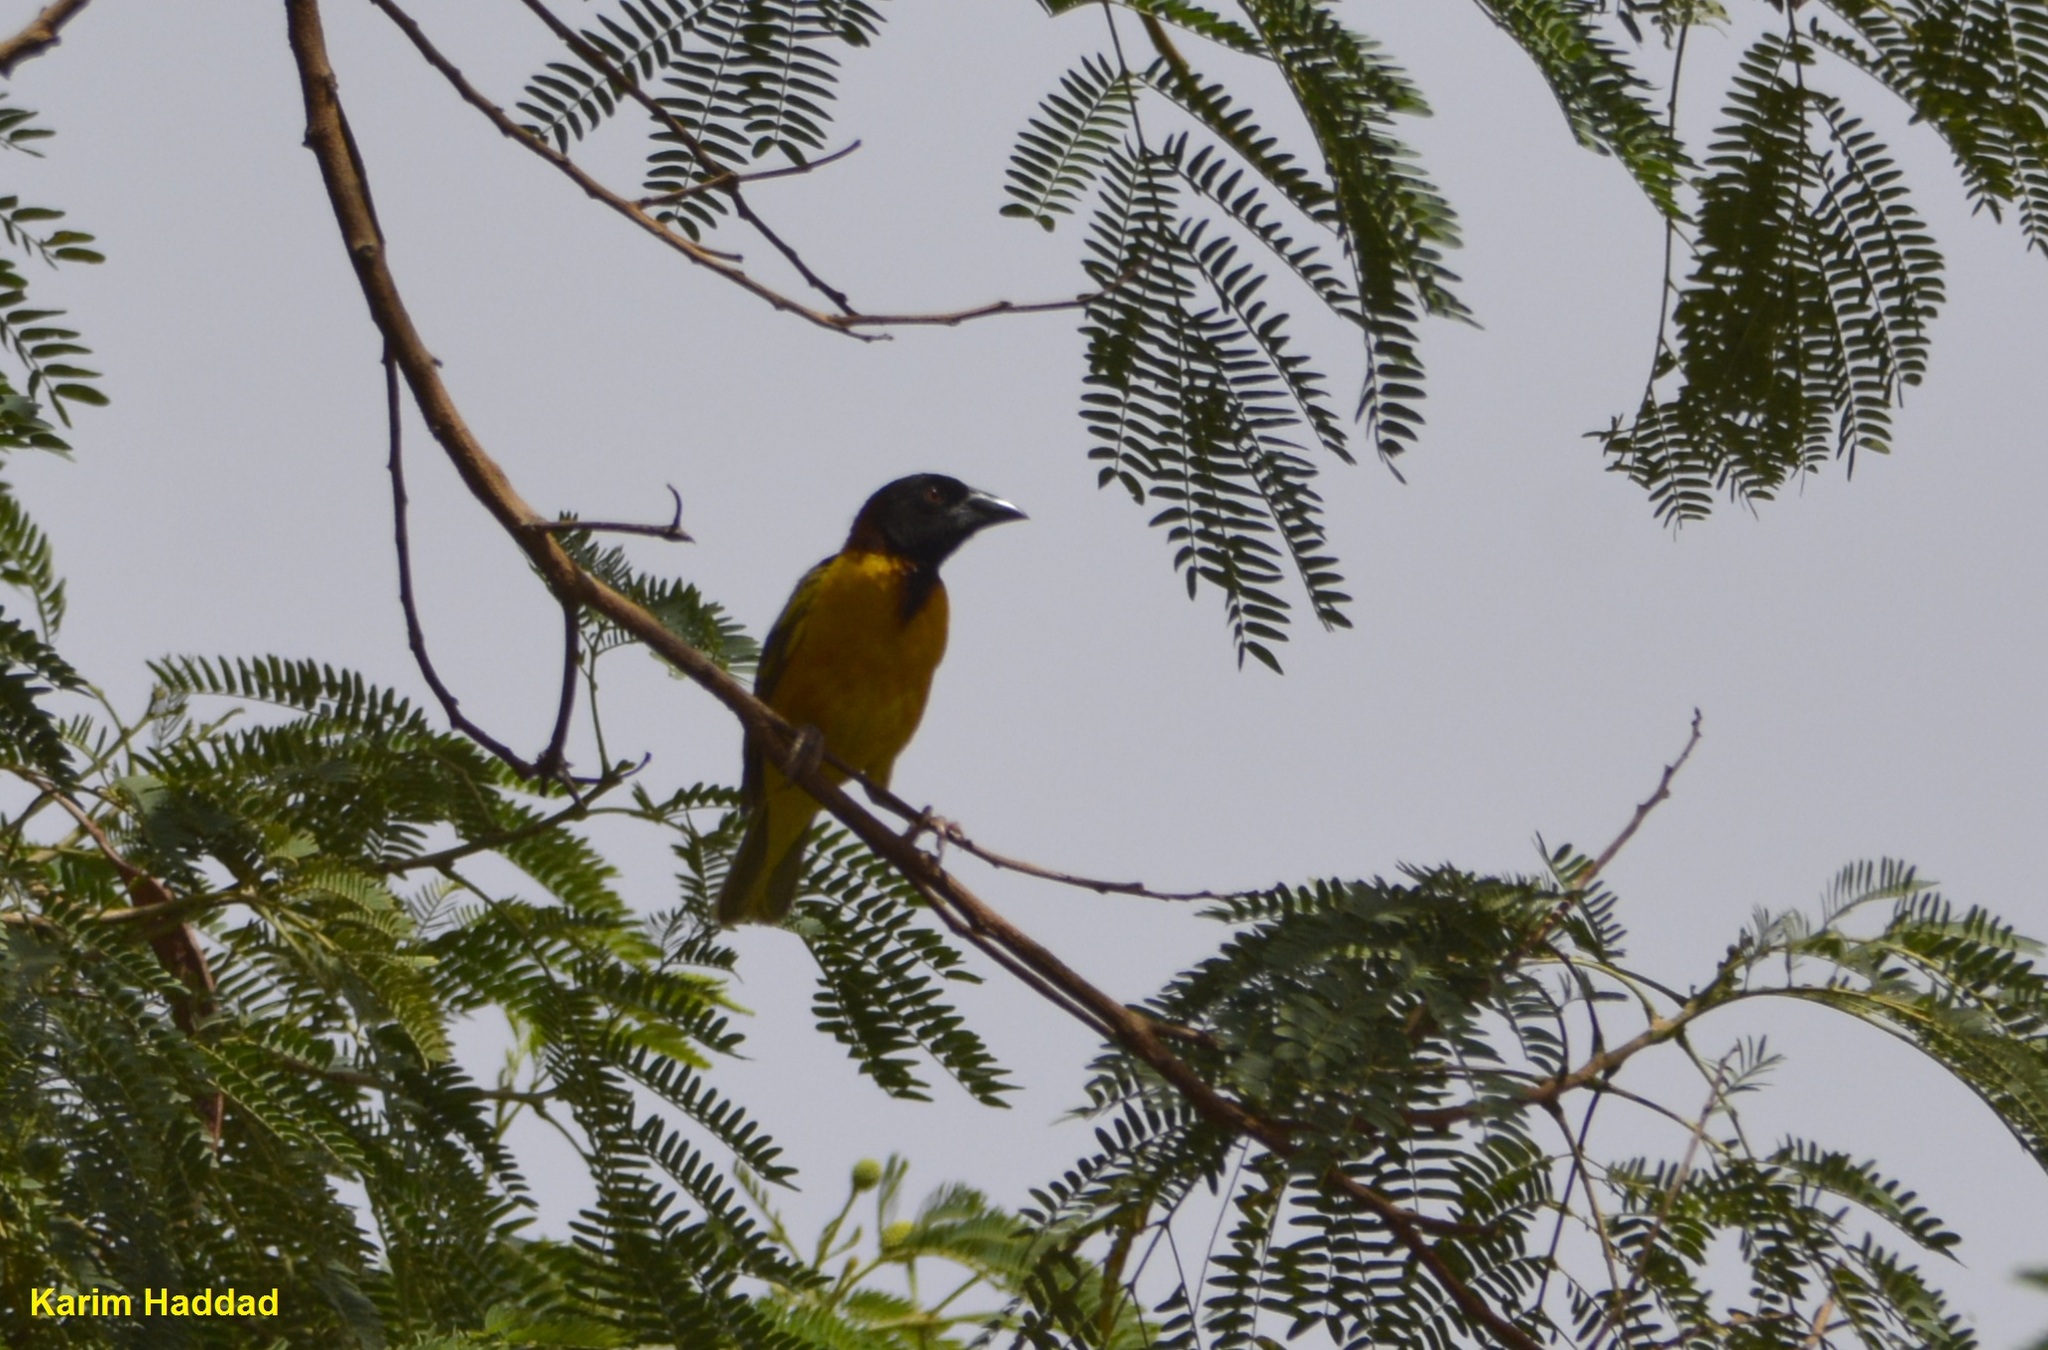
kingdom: Animalia
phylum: Chordata
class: Aves
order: Passeriformes
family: Ploceidae
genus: Ploceus
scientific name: Ploceus cucullatus
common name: Village weaver
